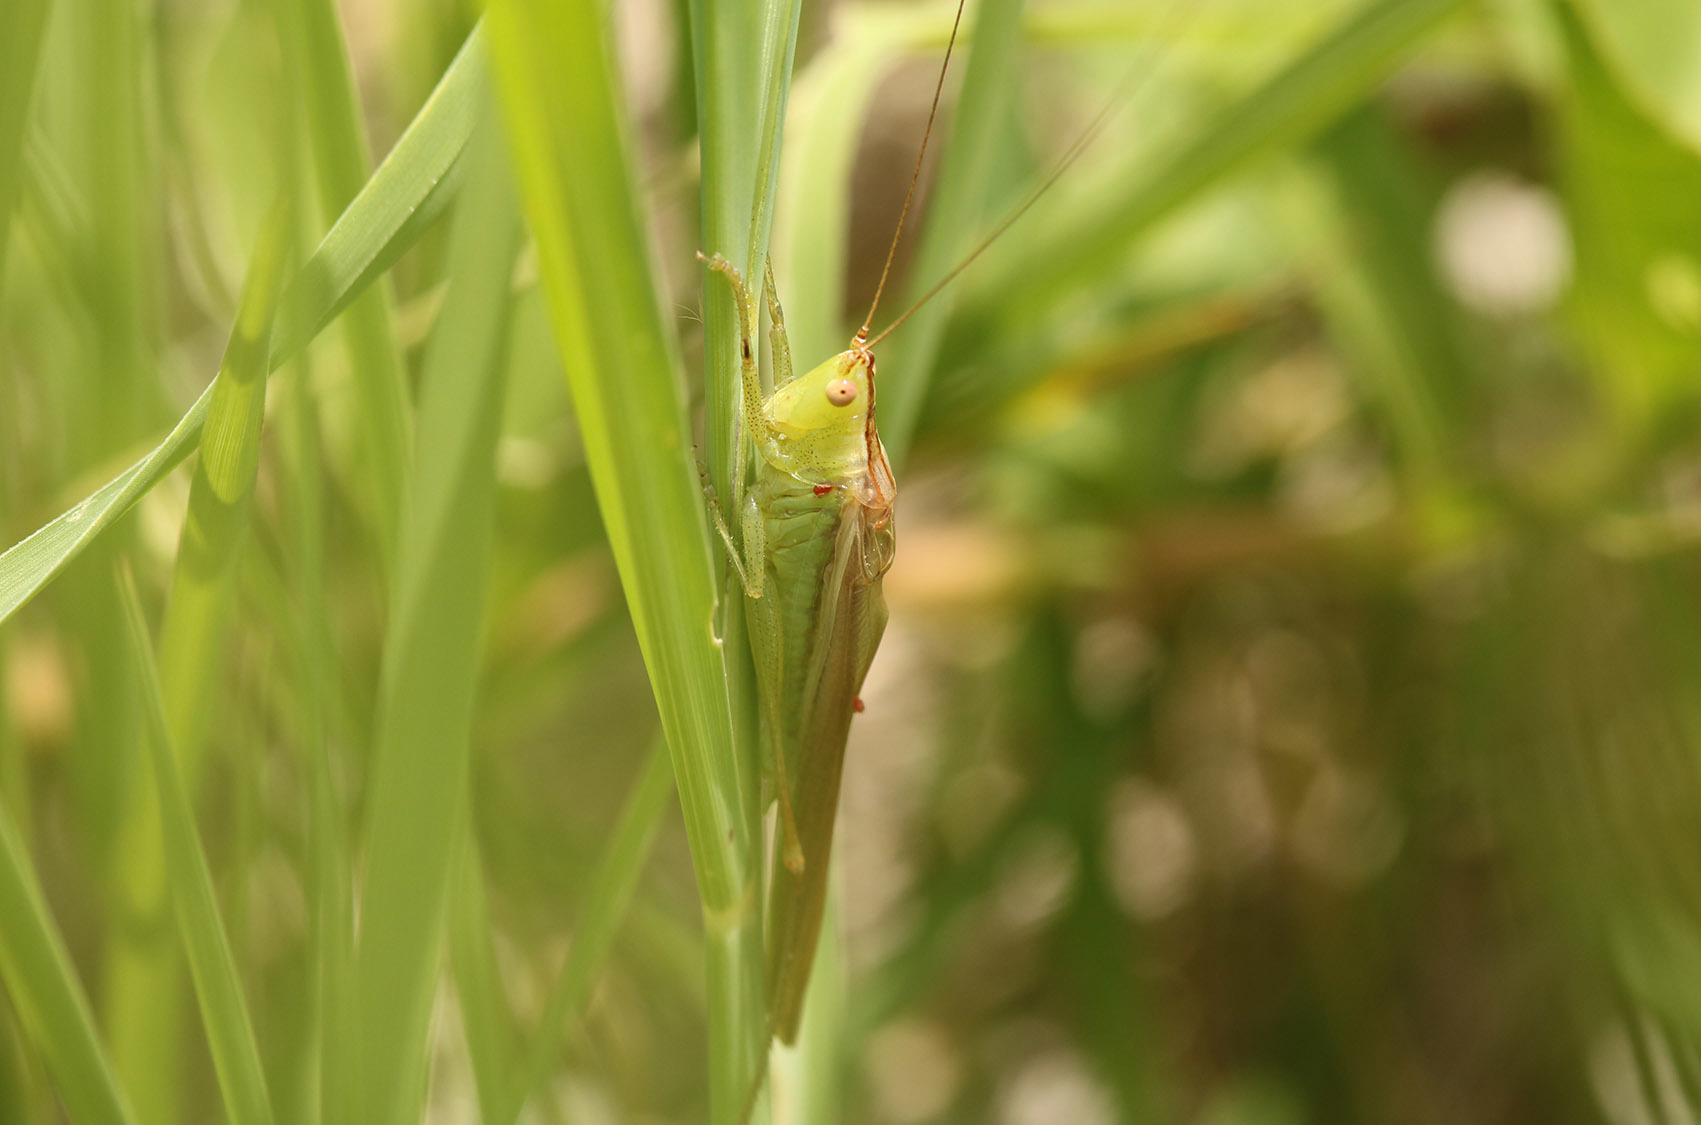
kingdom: Animalia
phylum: Arthropoda
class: Insecta
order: Orthoptera
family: Tettigoniidae
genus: Conocephalus
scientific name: Conocephalus longipes
